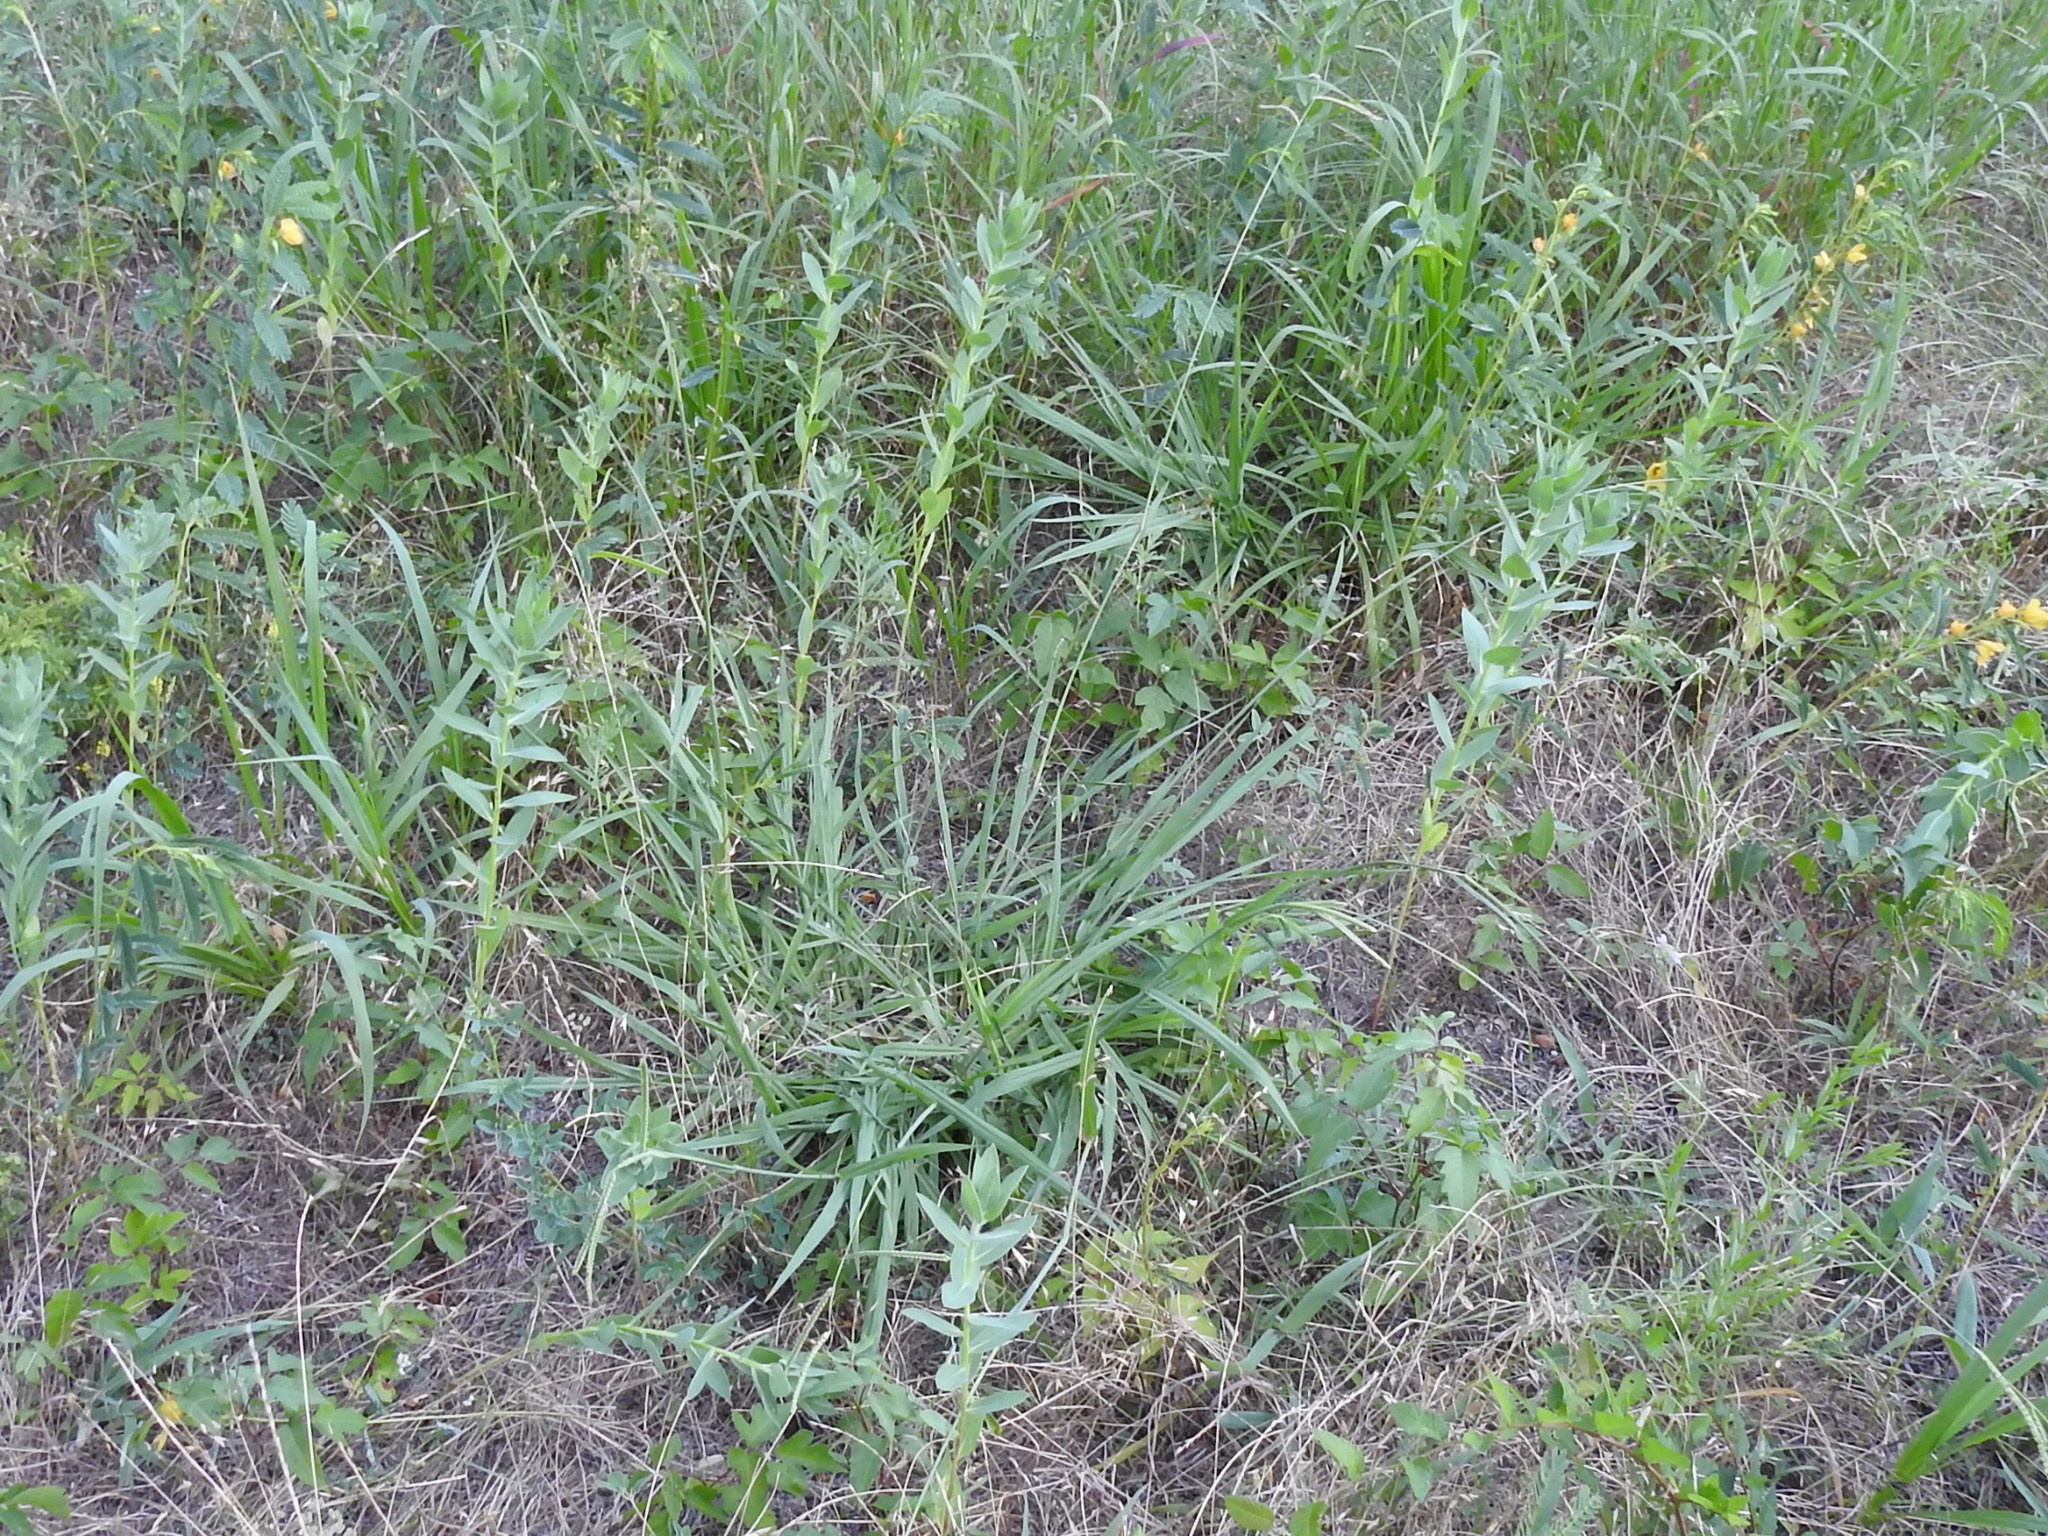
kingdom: Plantae
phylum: Tracheophyta
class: Liliopsida
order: Poales
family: Poaceae
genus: Paspalum
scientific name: Paspalum urvillei
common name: Vasey's grass
